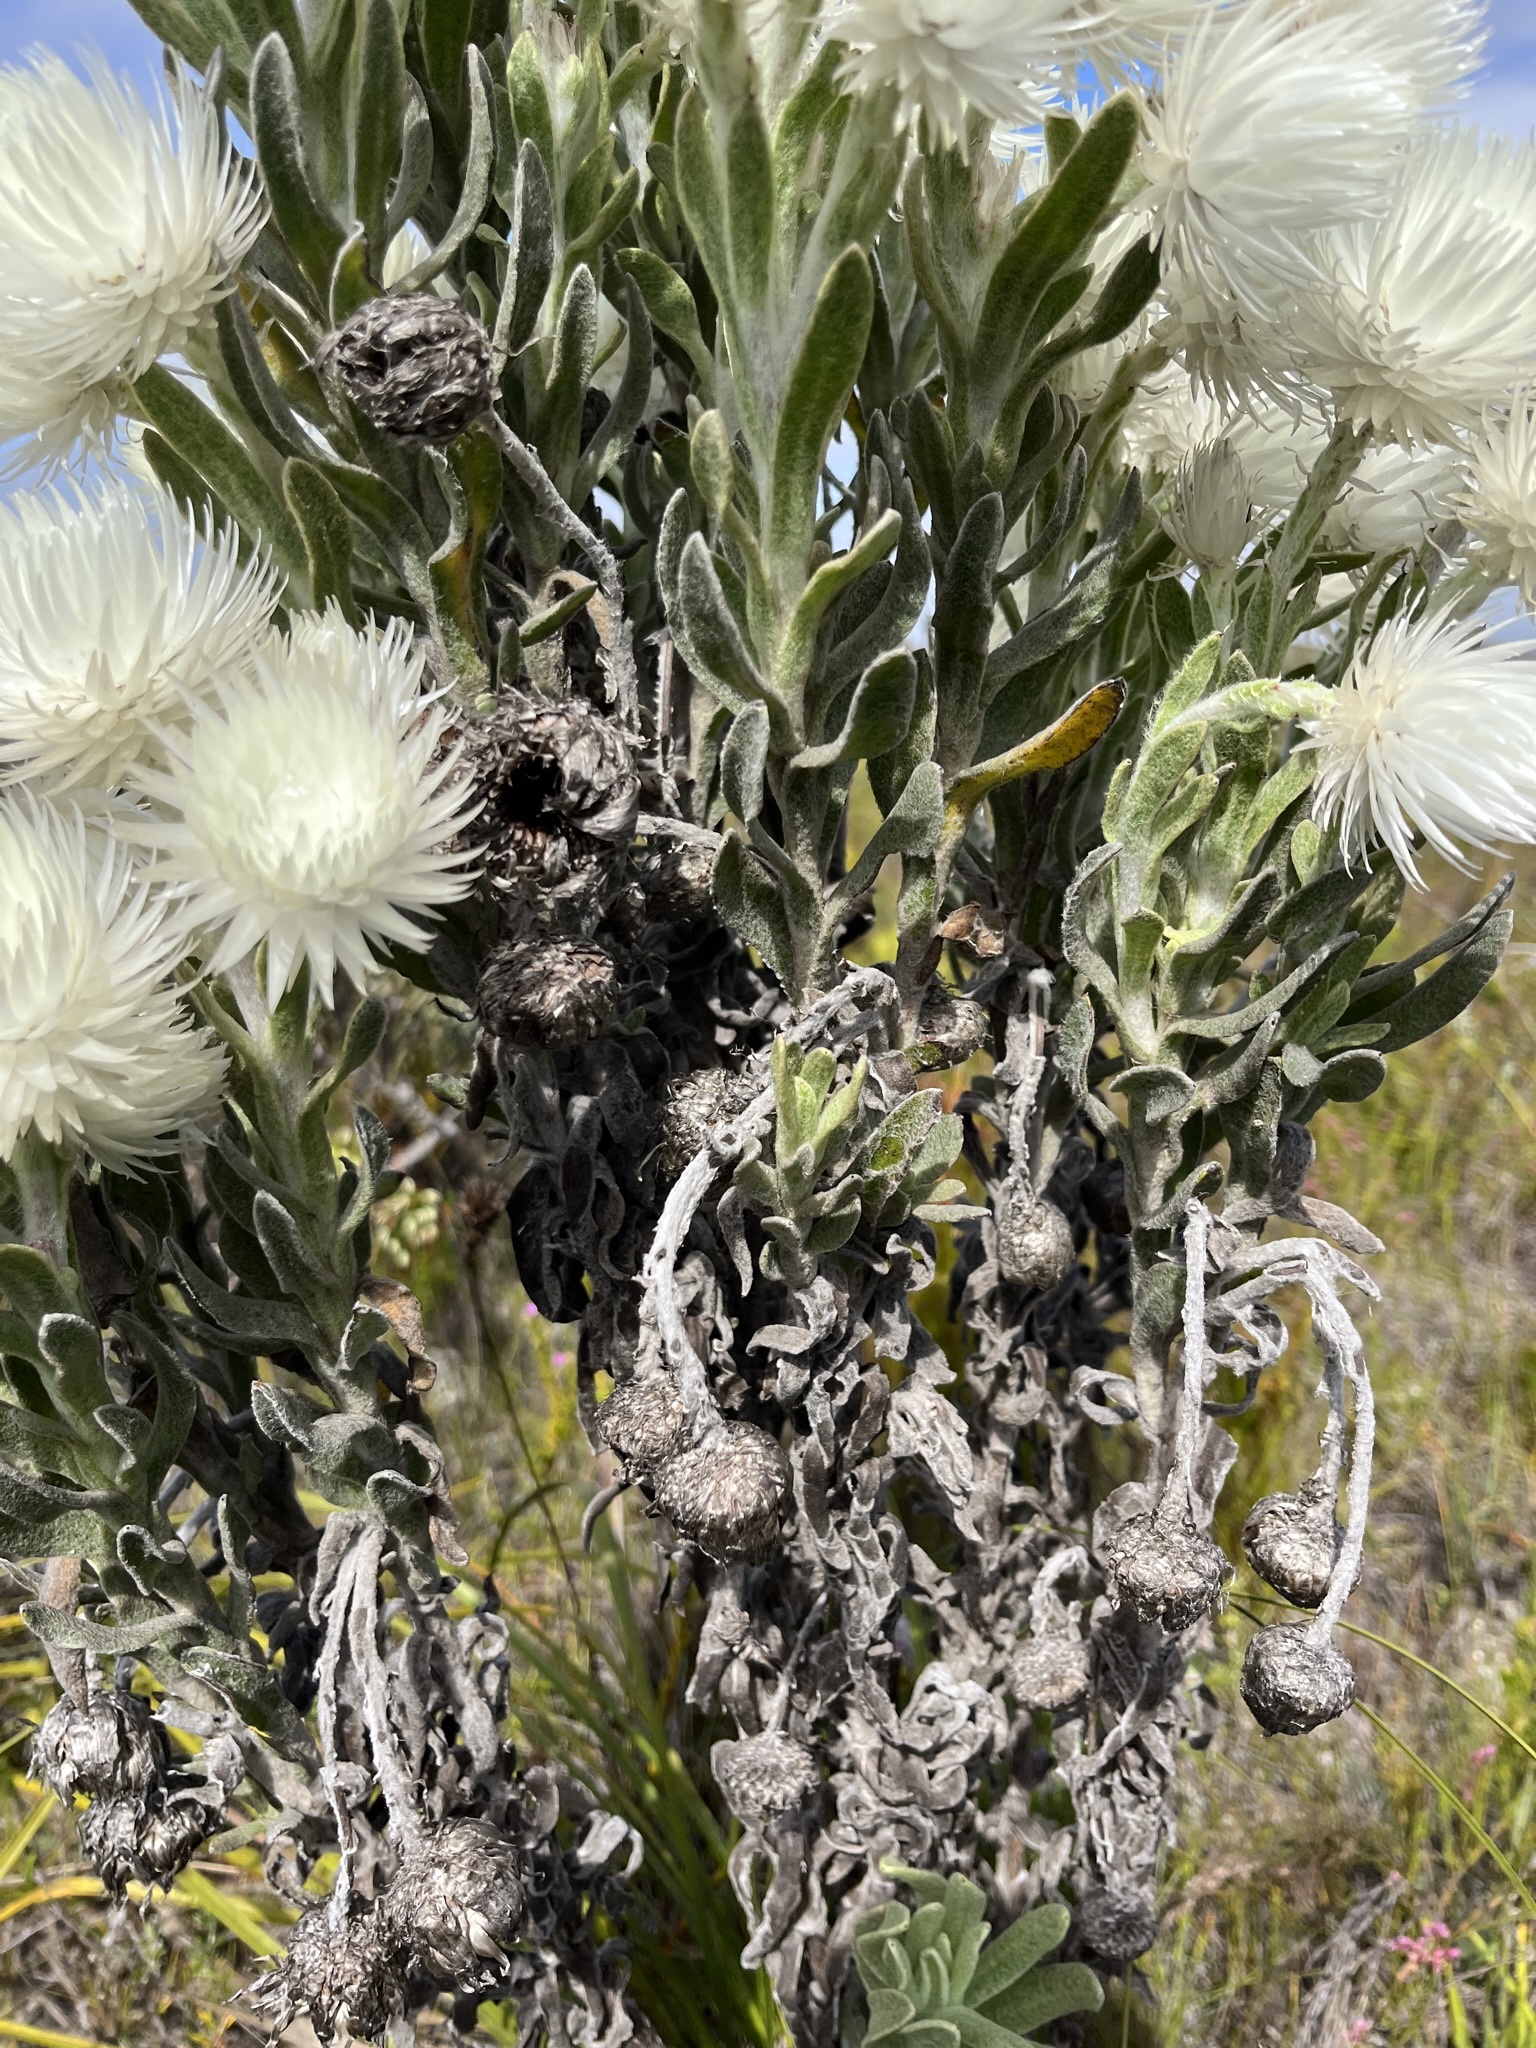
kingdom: Plantae
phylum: Tracheophyta
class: Magnoliopsida
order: Asterales
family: Asteraceae
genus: Syncarpha
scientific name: Syncarpha vestita
